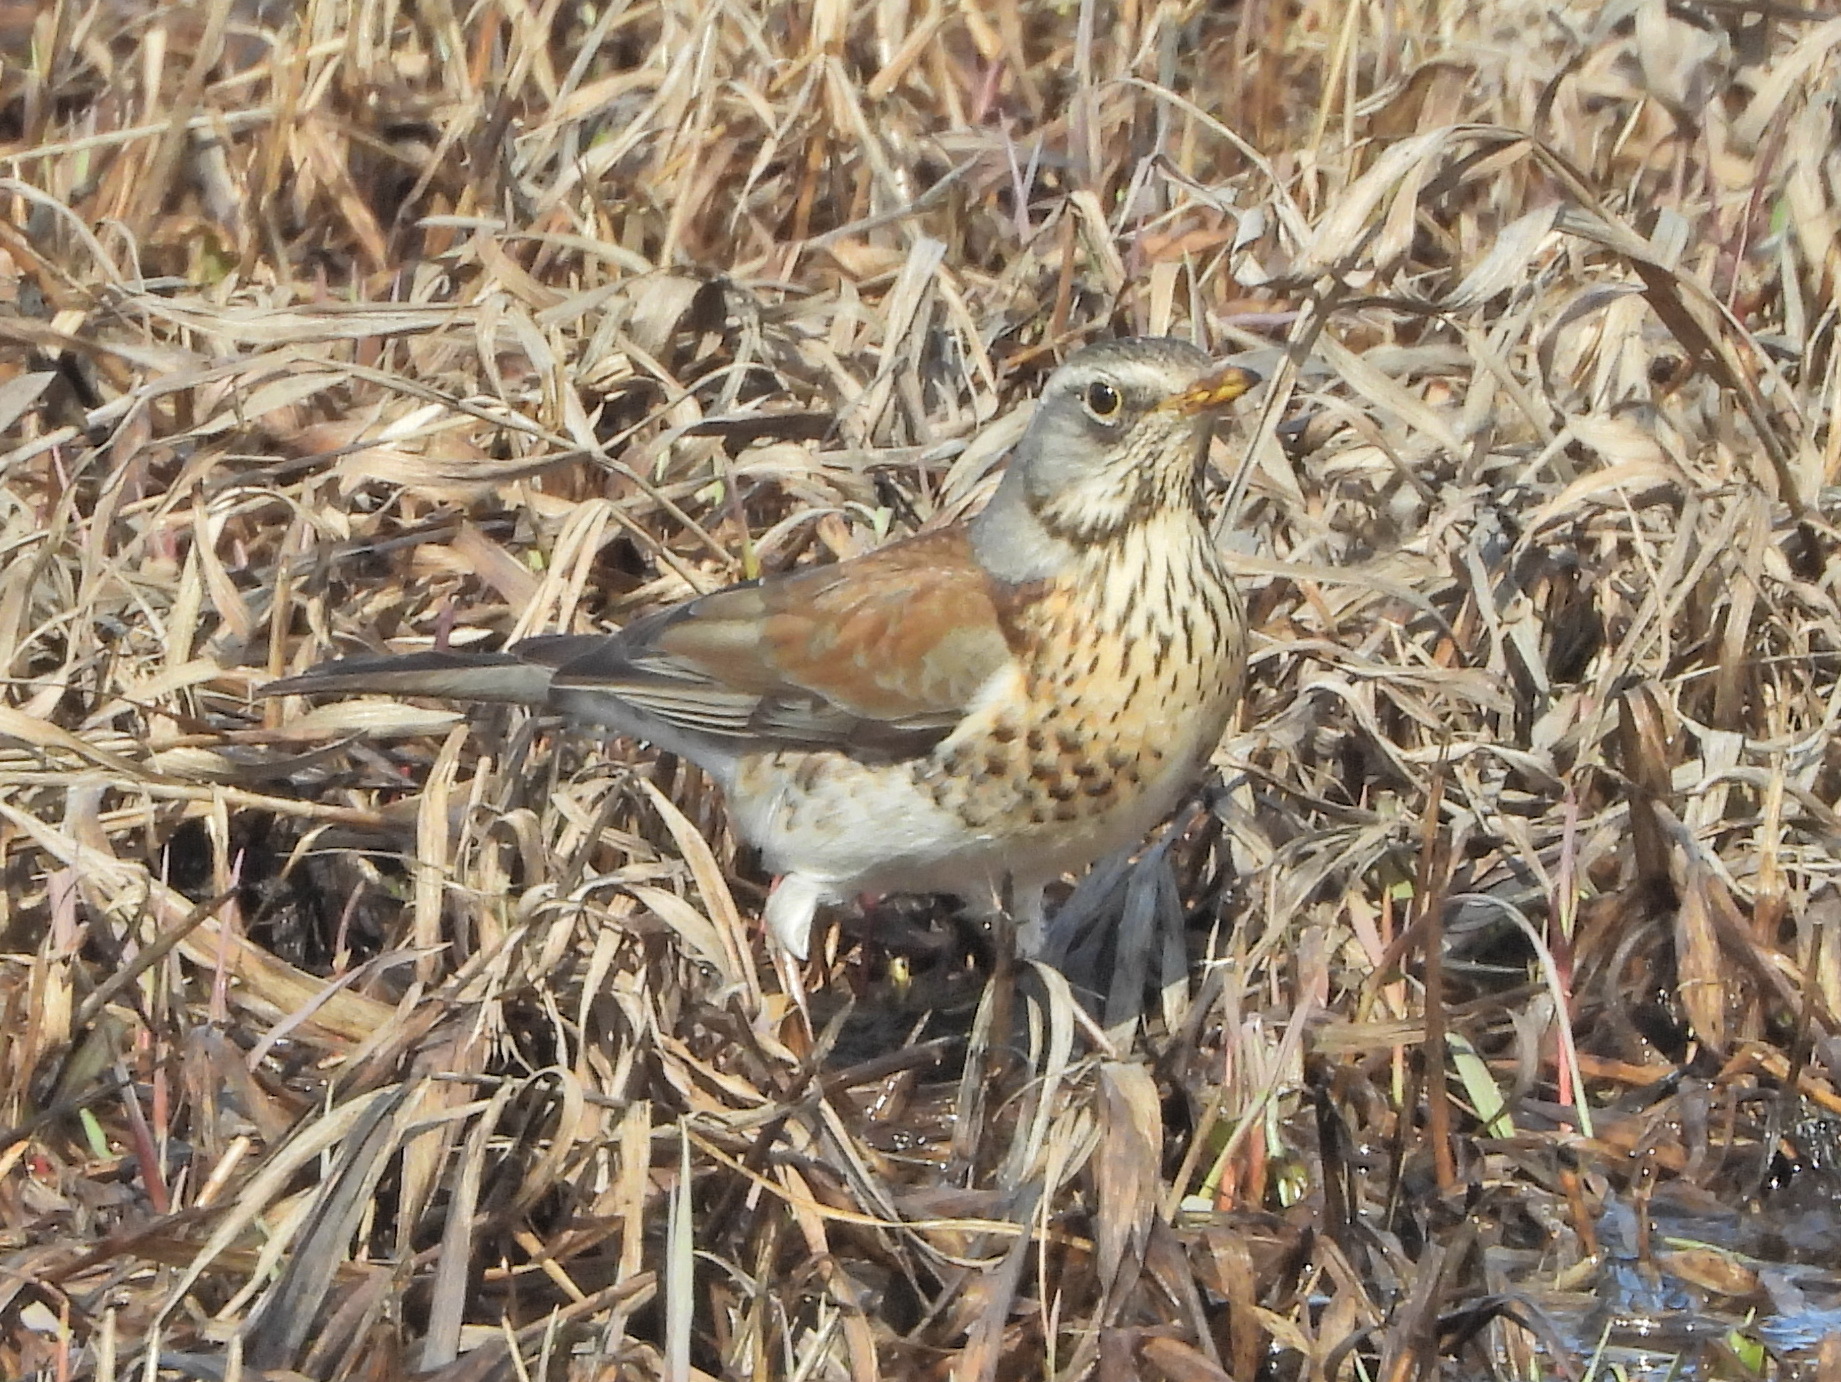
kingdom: Animalia
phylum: Chordata
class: Aves
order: Passeriformes
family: Turdidae
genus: Turdus
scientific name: Turdus pilaris
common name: Fieldfare
